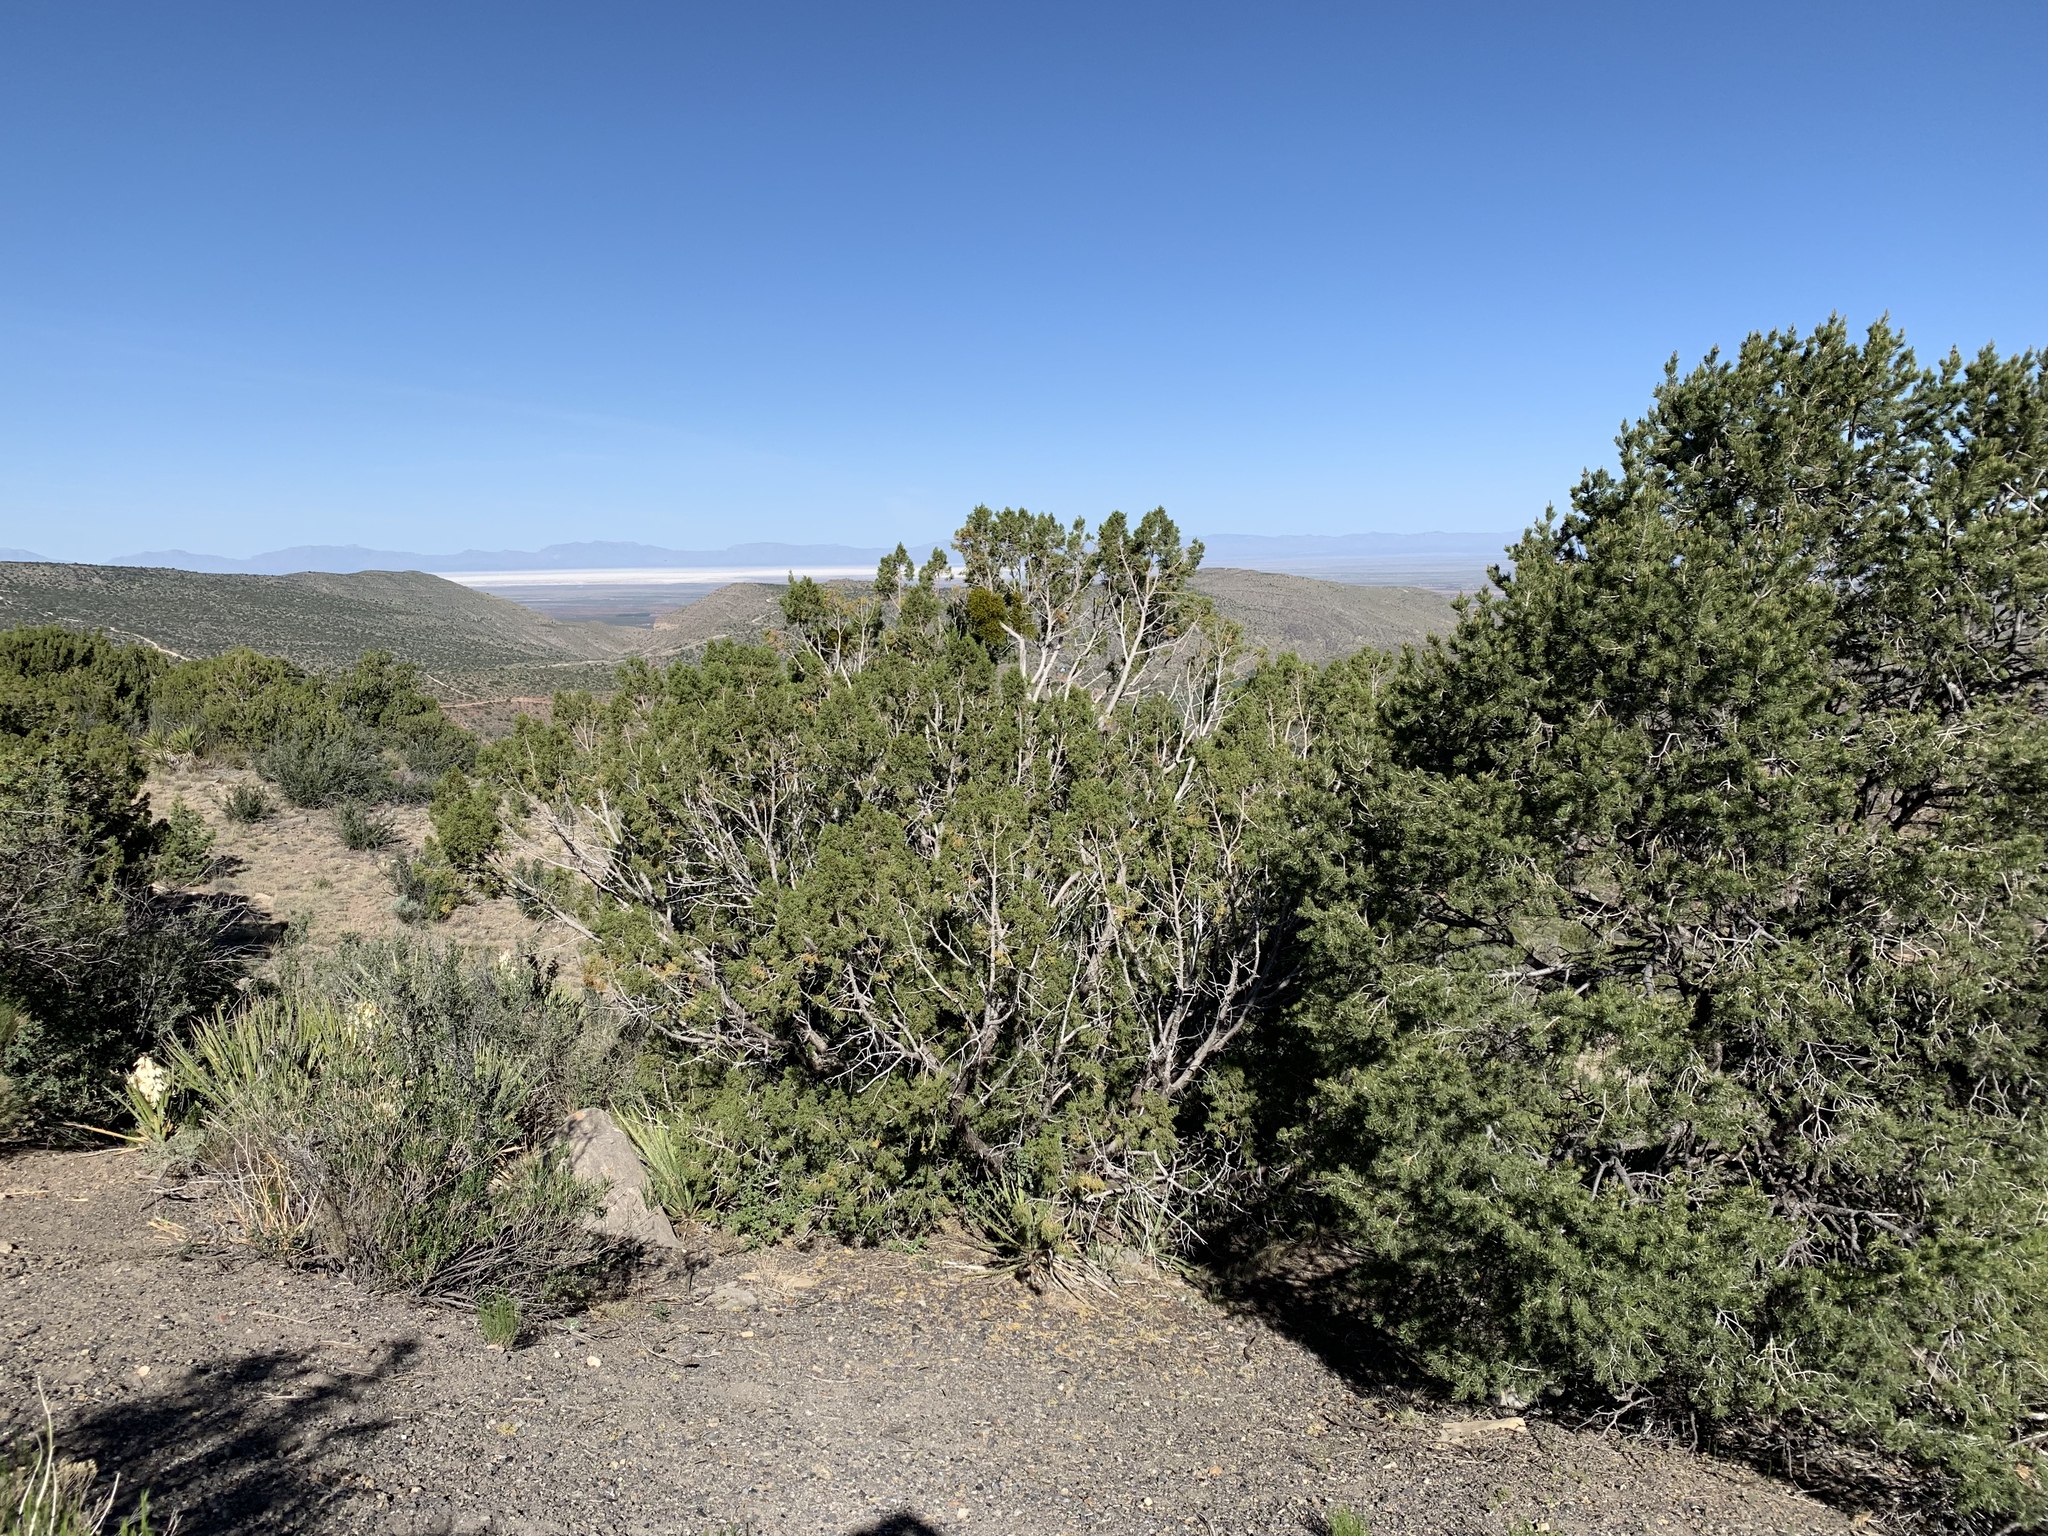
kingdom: Plantae
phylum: Tracheophyta
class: Pinopsida
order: Pinales
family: Cupressaceae
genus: Juniperus
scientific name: Juniperus monosperma
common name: One-seed juniper
